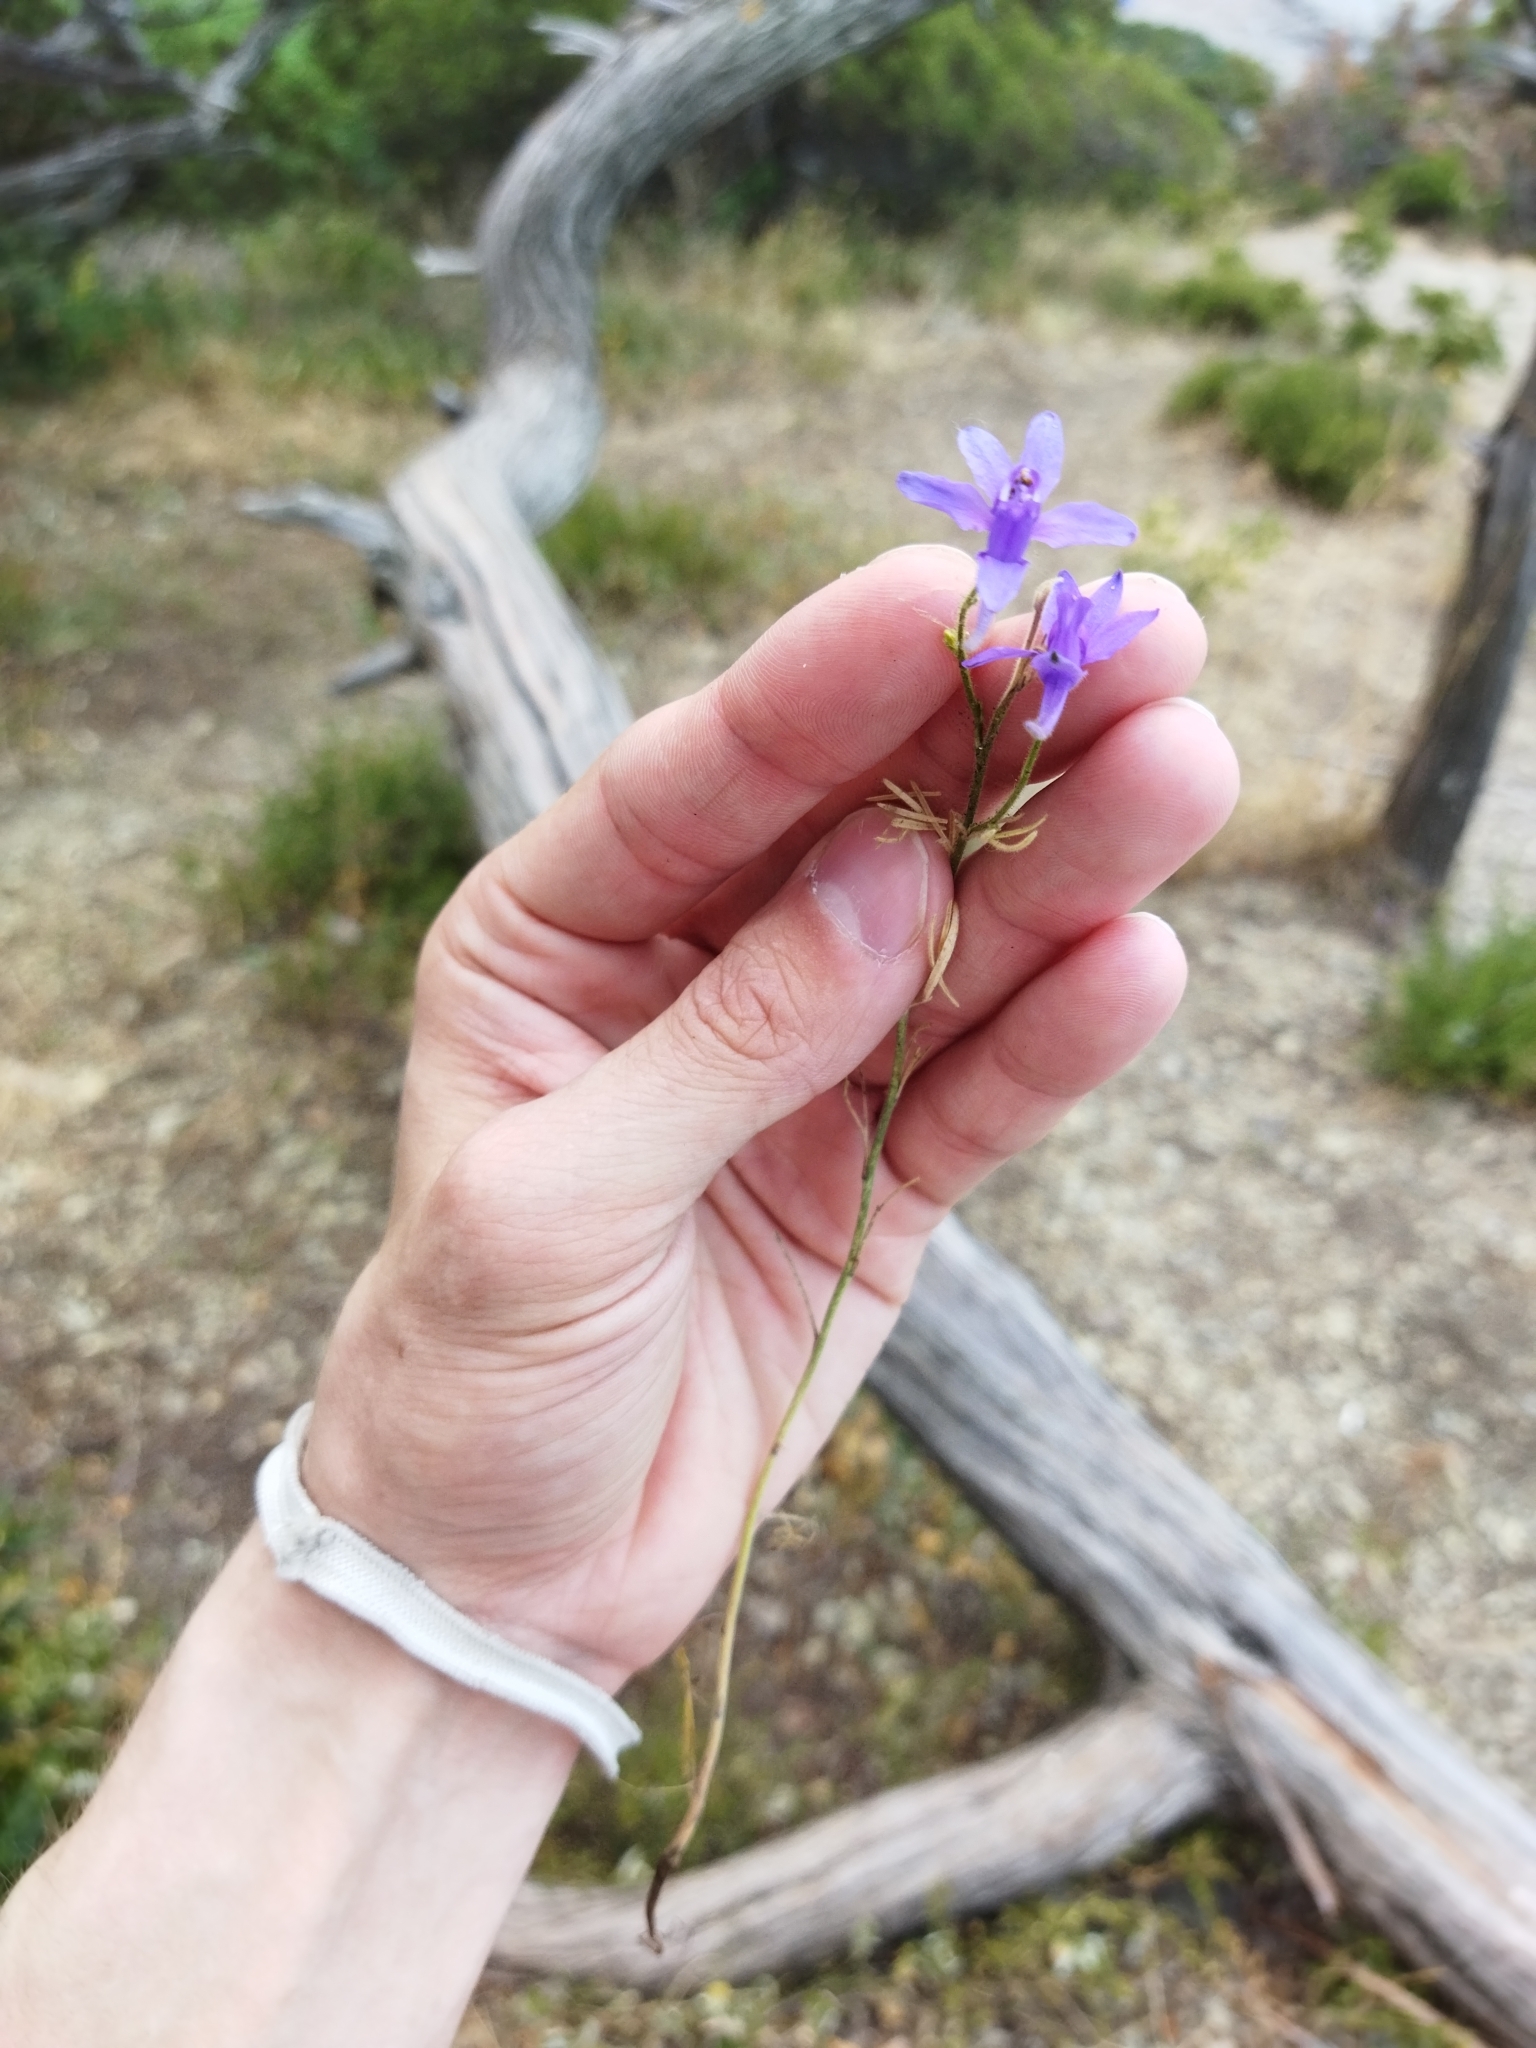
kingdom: Plantae
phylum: Tracheophyta
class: Magnoliopsida
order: Ranunculales
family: Ranunculaceae
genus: Delphinium
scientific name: Delphinium consolida
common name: Branching larkspur
